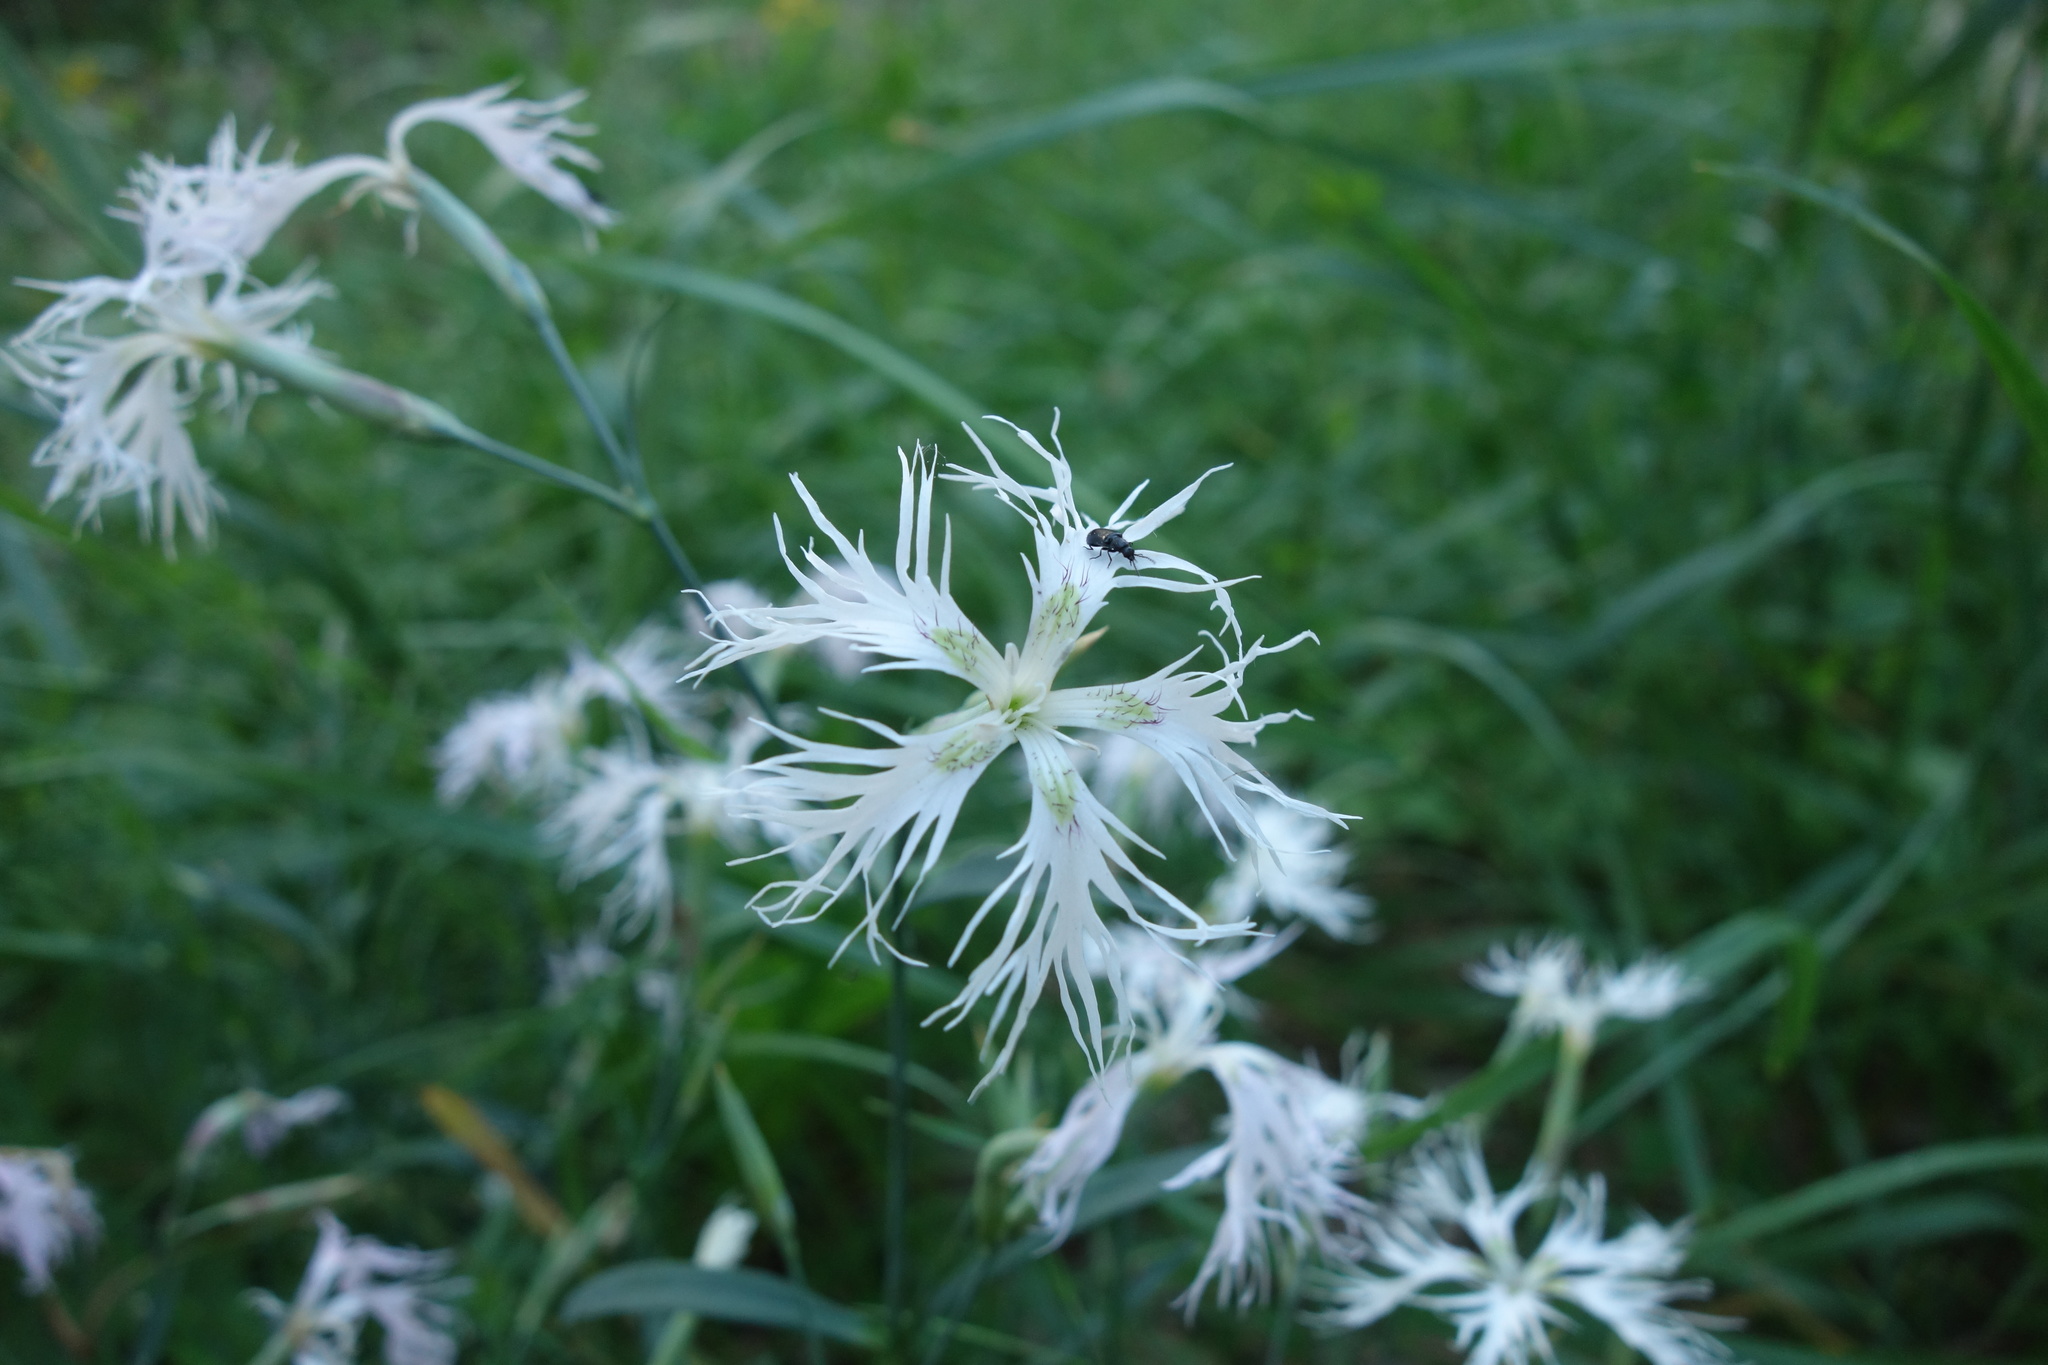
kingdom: Plantae
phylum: Tracheophyta
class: Magnoliopsida
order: Caryophyllales
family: Caryophyllaceae
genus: Dianthus
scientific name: Dianthus superbus
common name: Fringed pink
